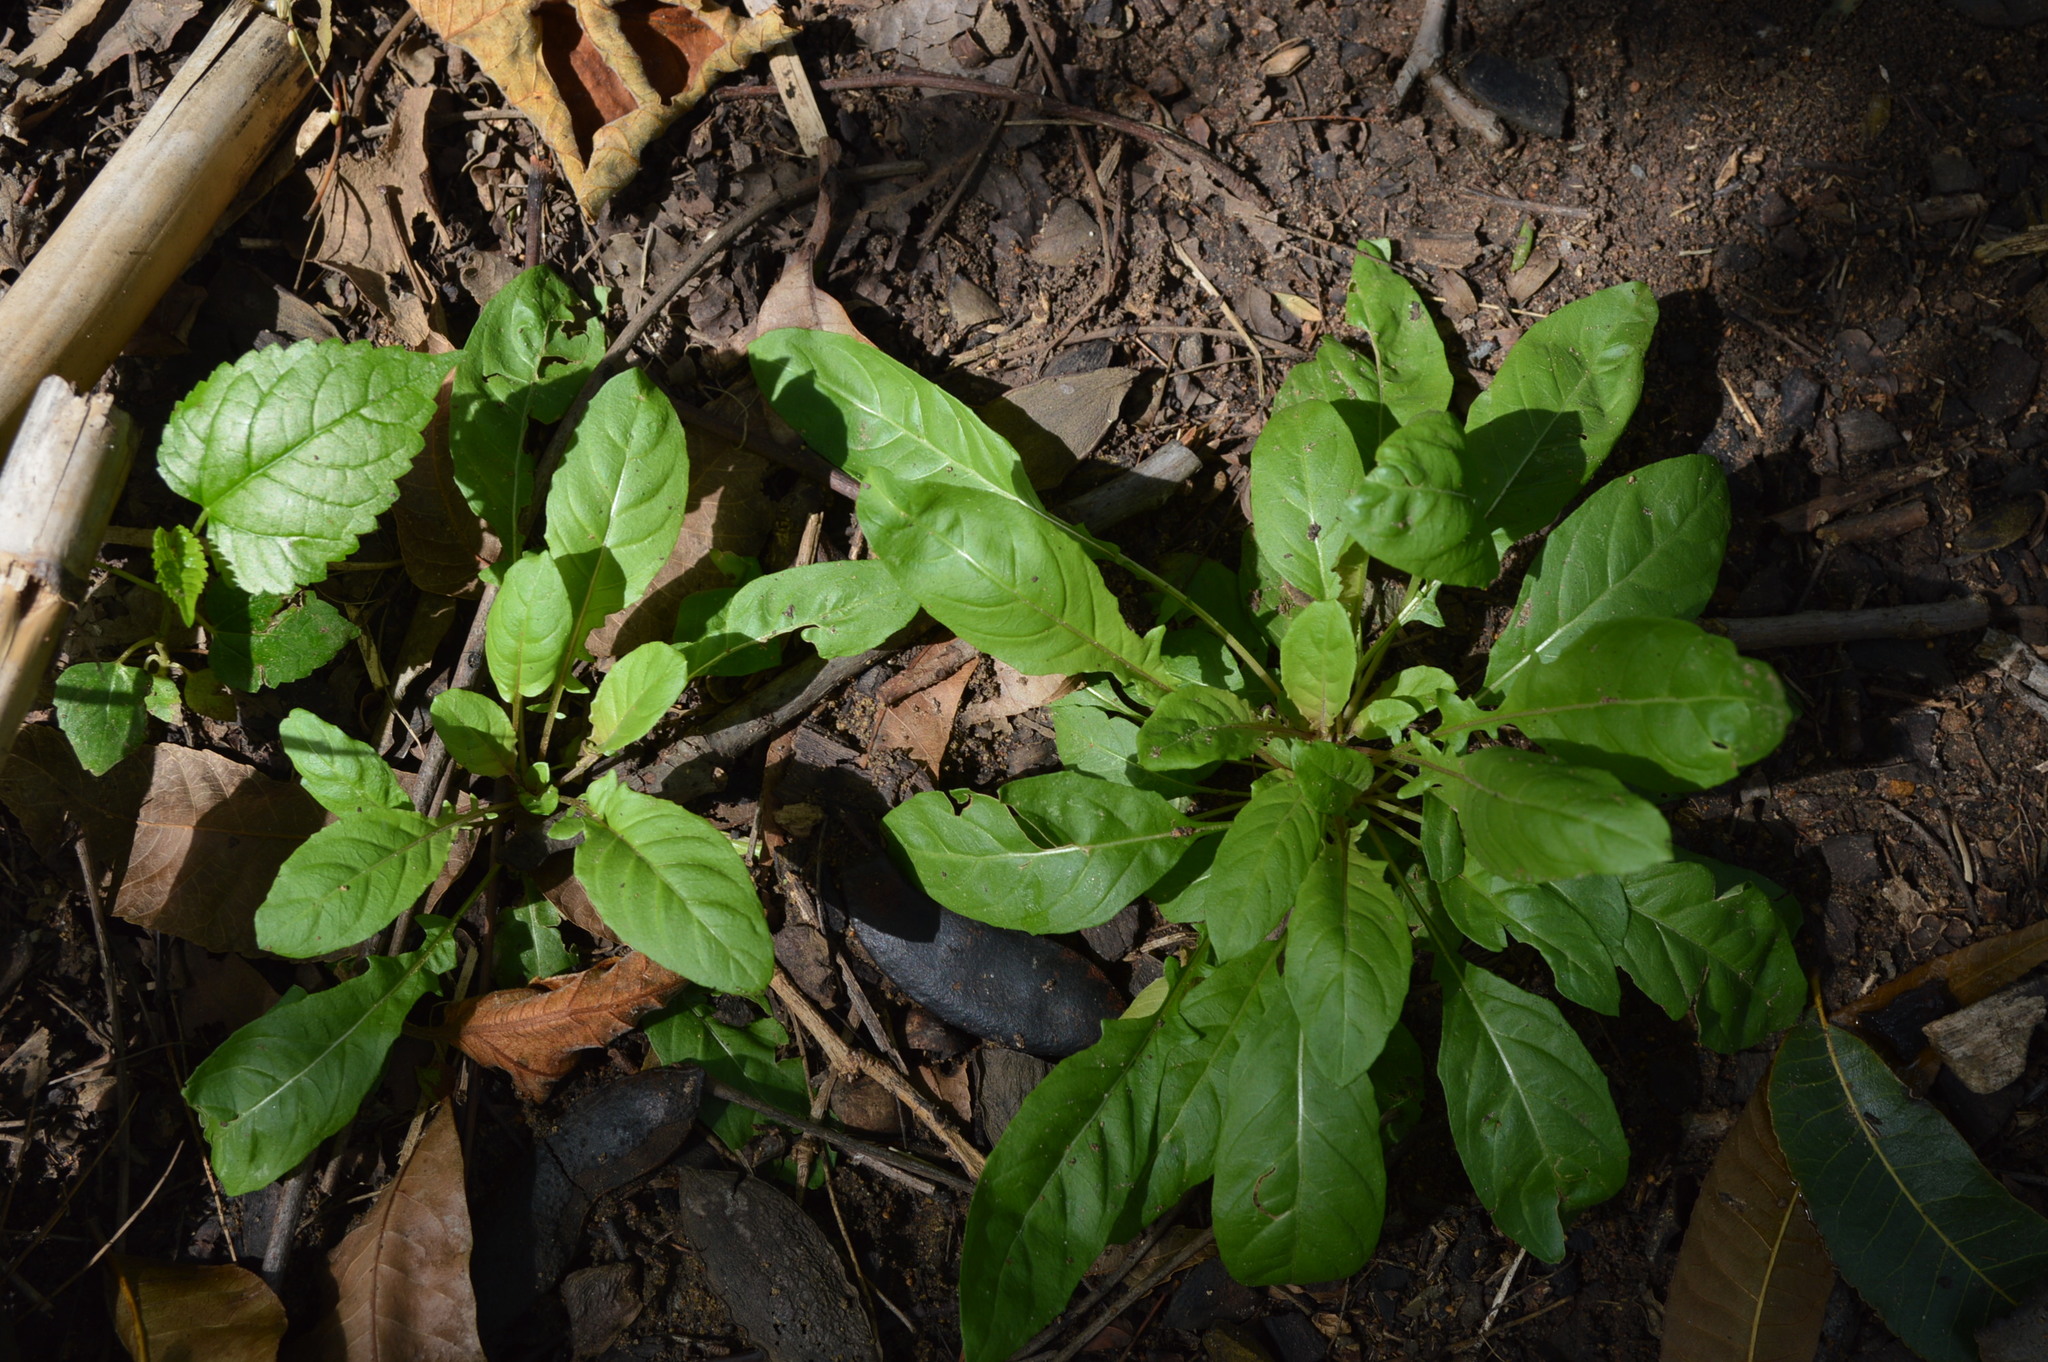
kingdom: Plantae
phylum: Tracheophyta
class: Magnoliopsida
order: Myrtales
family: Onagraceae
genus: Oenothera
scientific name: Oenothera rosea
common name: Rosy evening-primrose
